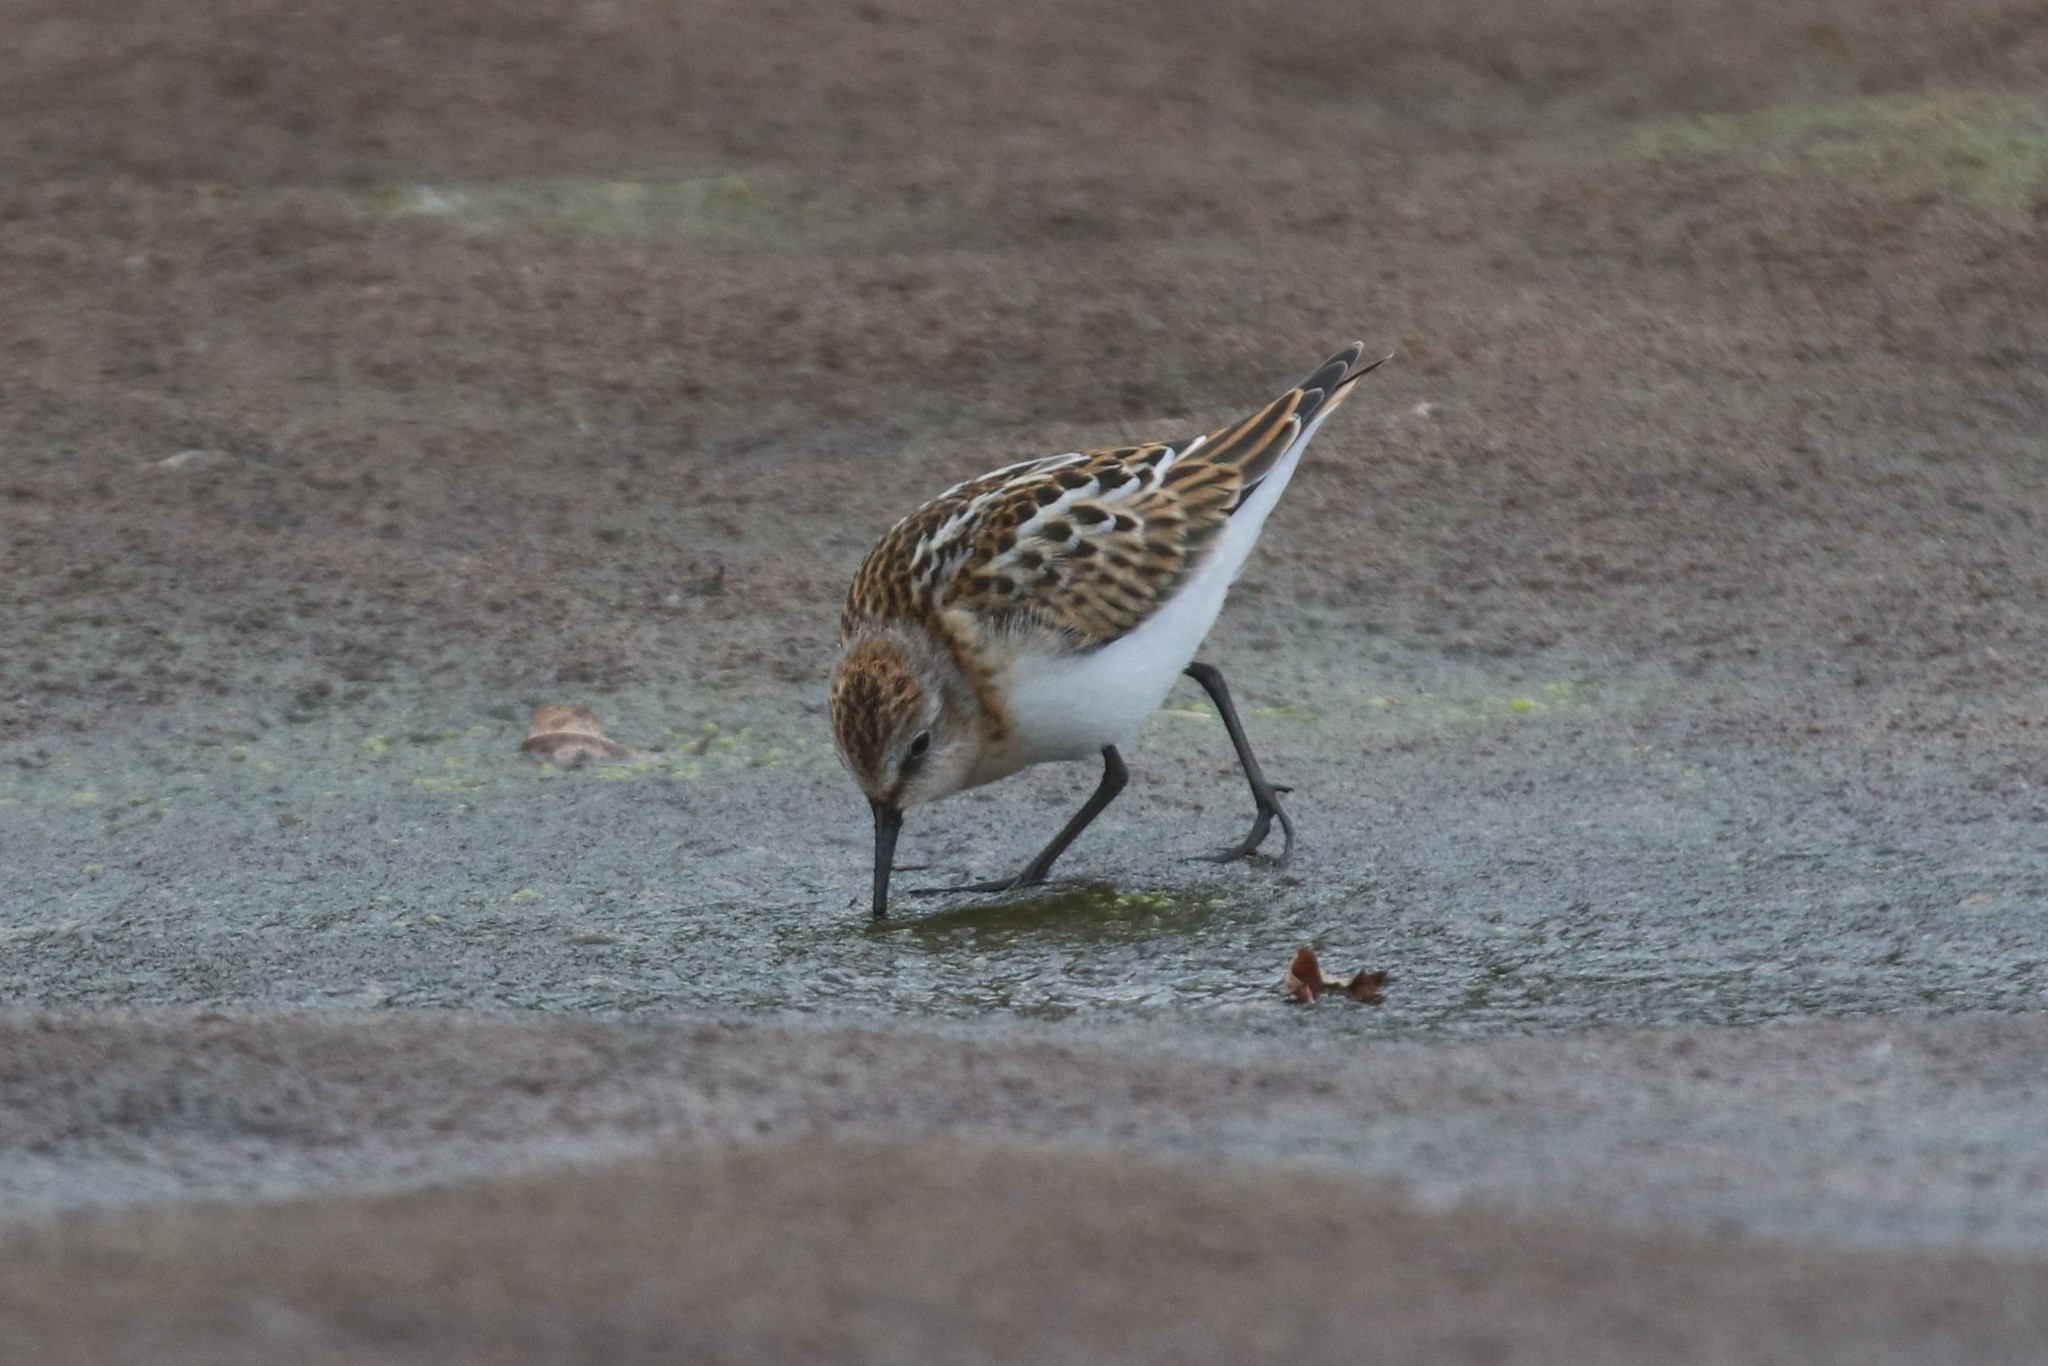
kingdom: Animalia
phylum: Chordata
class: Aves
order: Charadriiformes
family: Scolopacidae
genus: Calidris
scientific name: Calidris minuta
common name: Little stint
